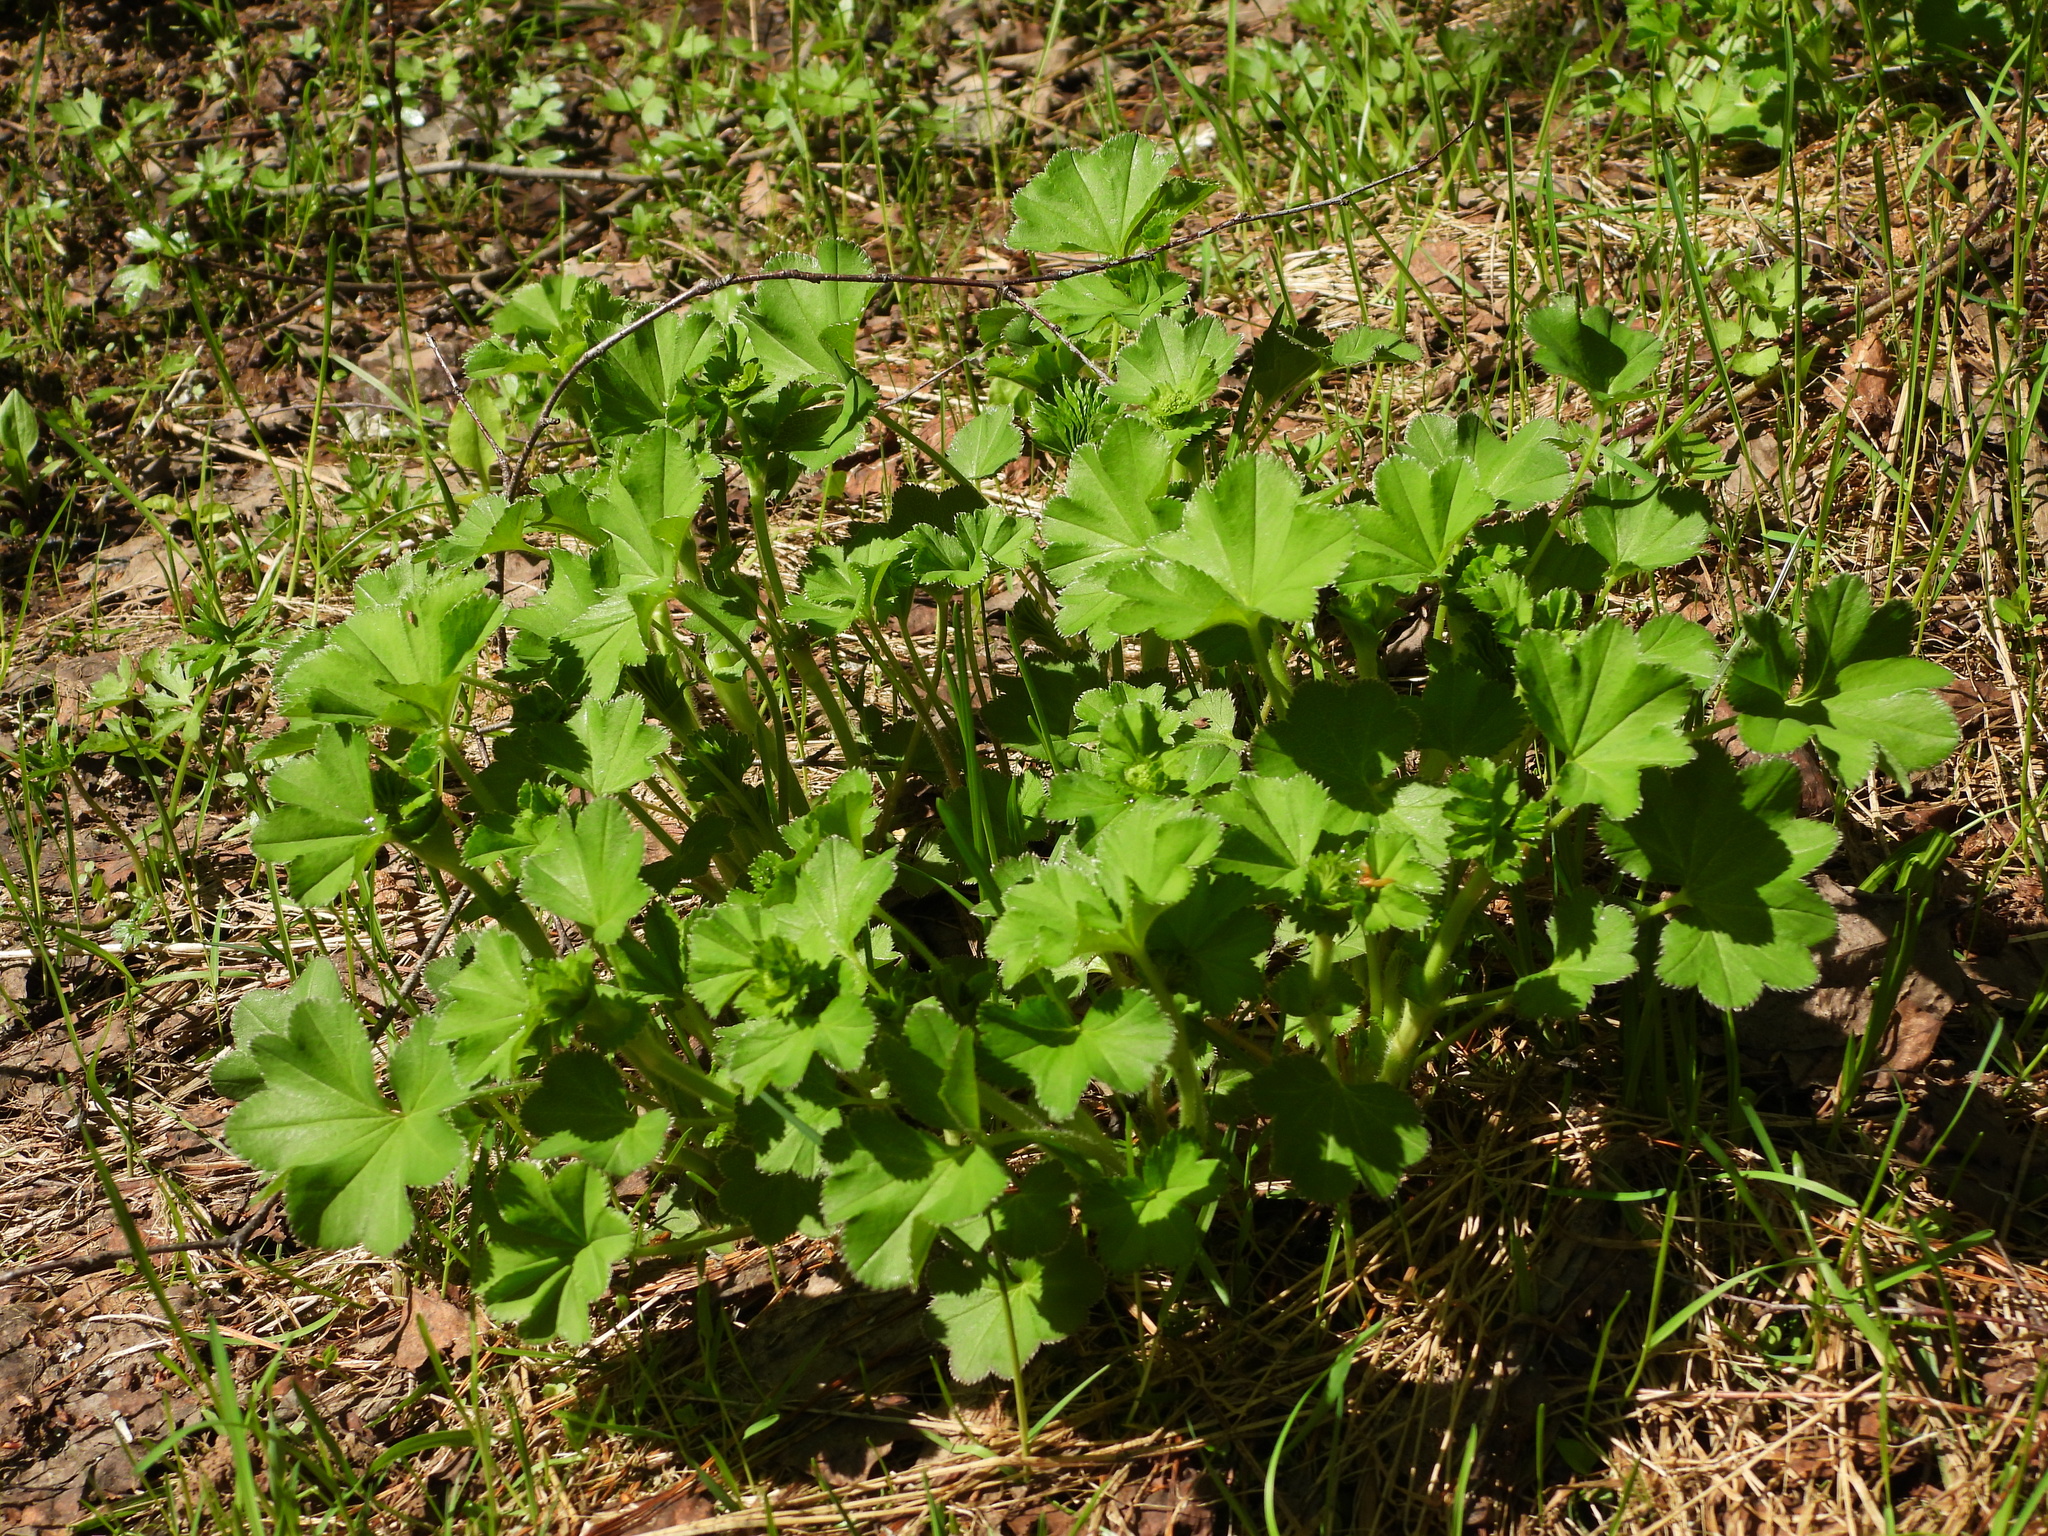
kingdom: Plantae
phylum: Tracheophyta
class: Magnoliopsida
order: Rosales
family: Rosaceae
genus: Alchemilla
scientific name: Alchemilla cymatophylla
